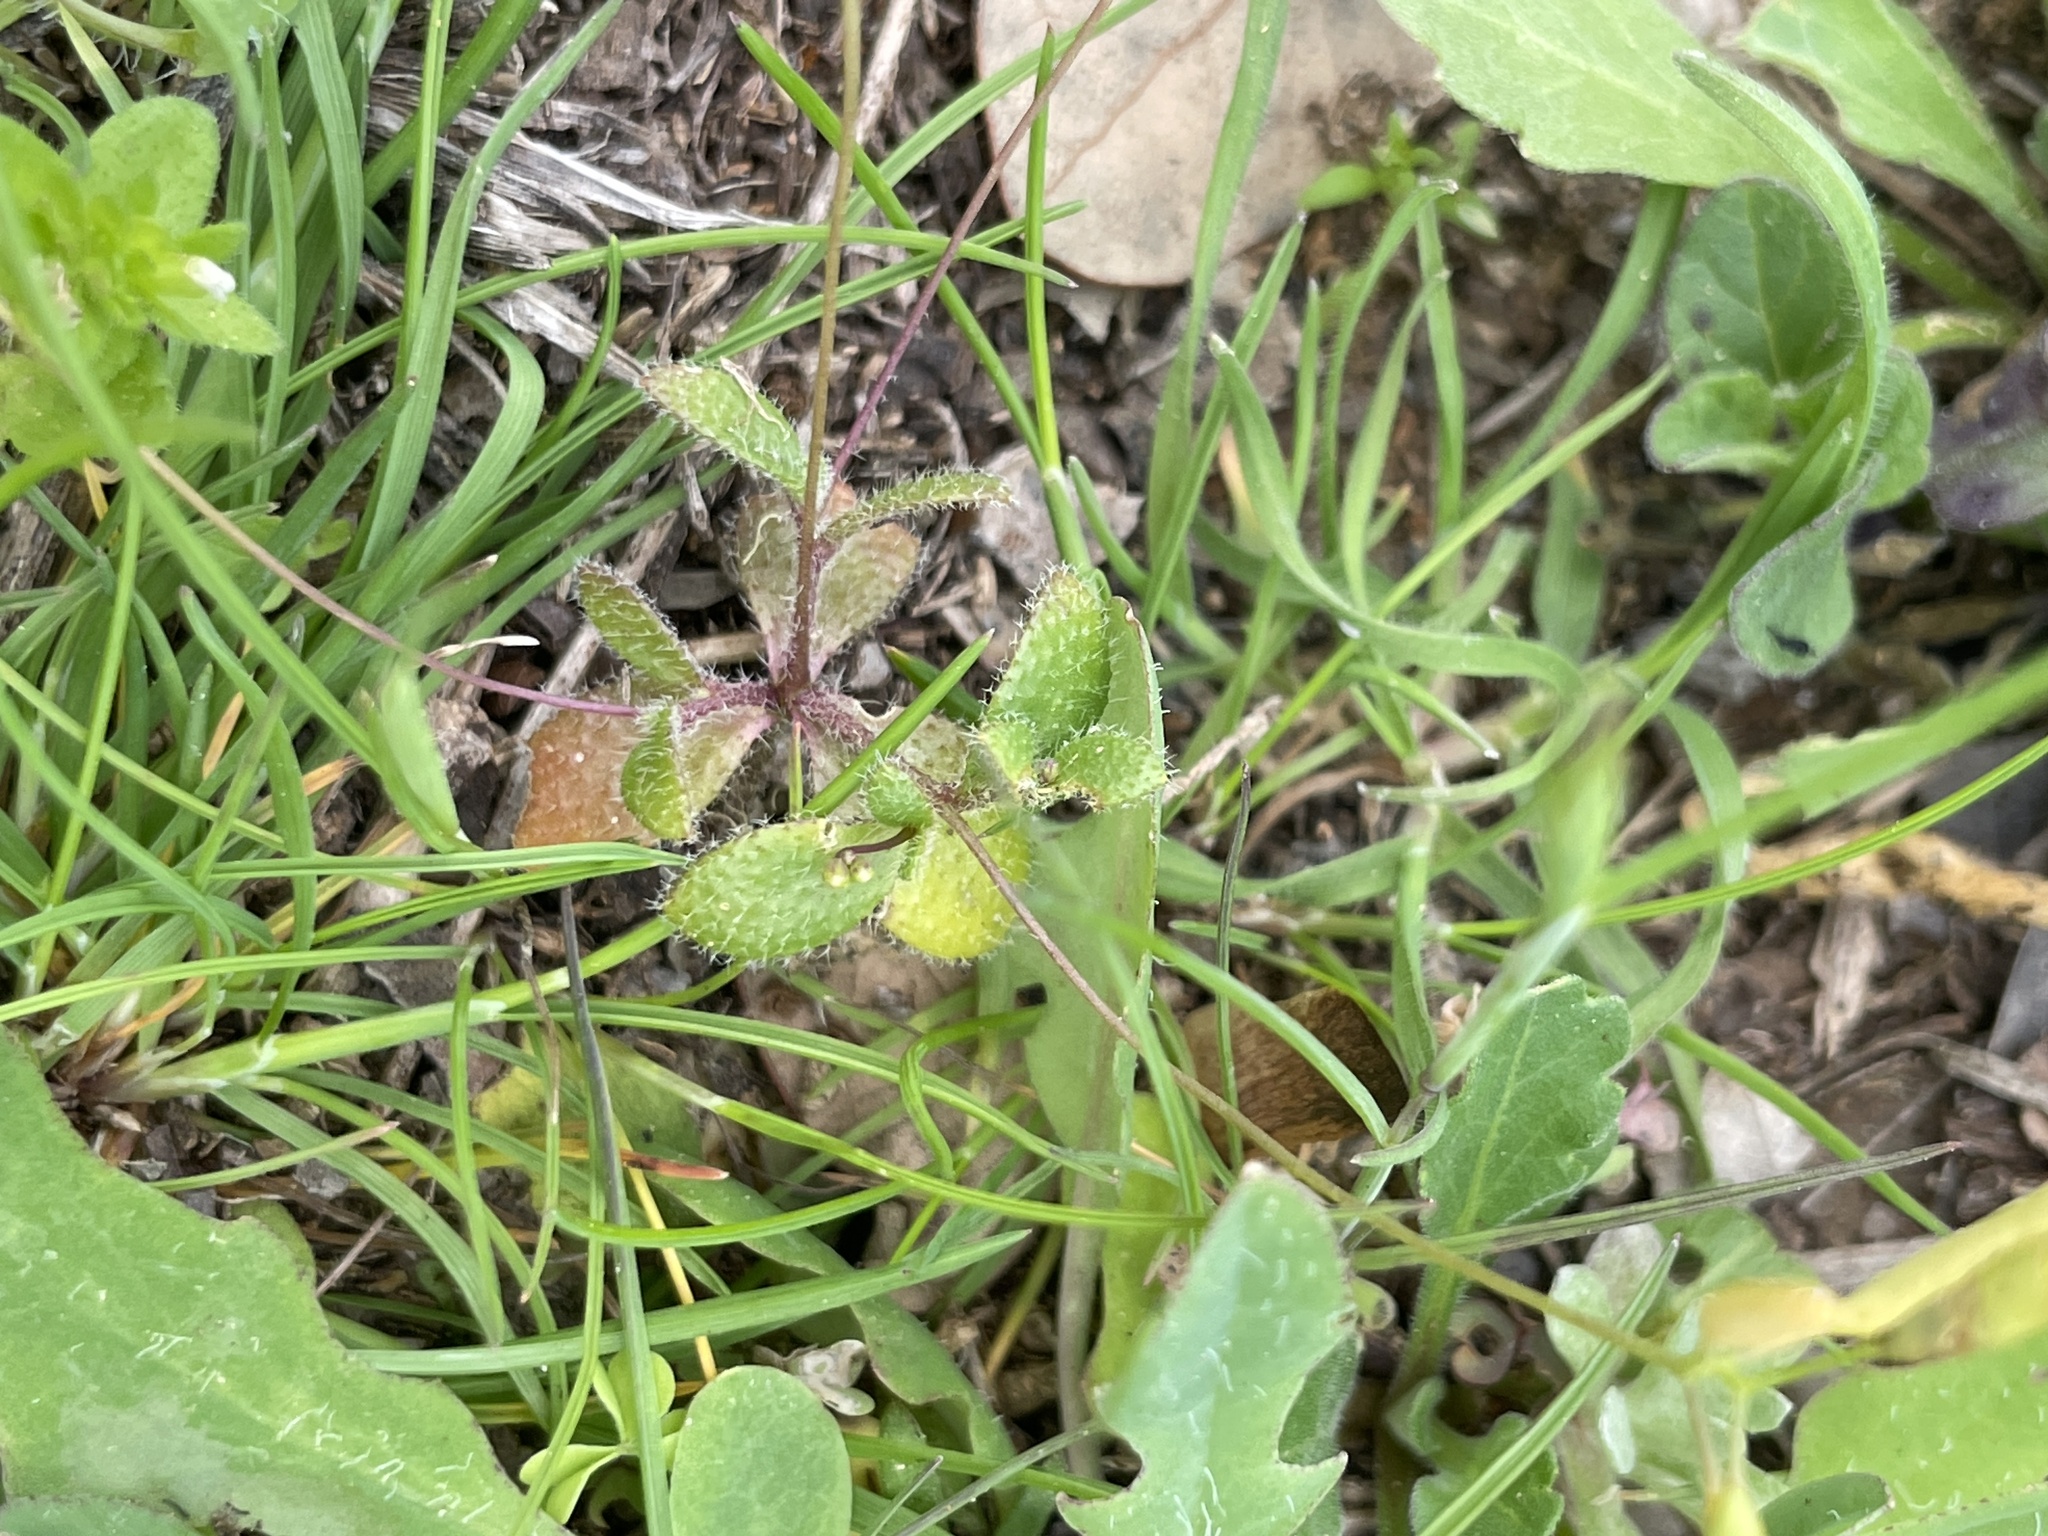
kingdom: Plantae
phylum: Tracheophyta
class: Magnoliopsida
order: Brassicales
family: Brassicaceae
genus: Tomostima
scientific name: Tomostima reptans
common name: Carolina draba
